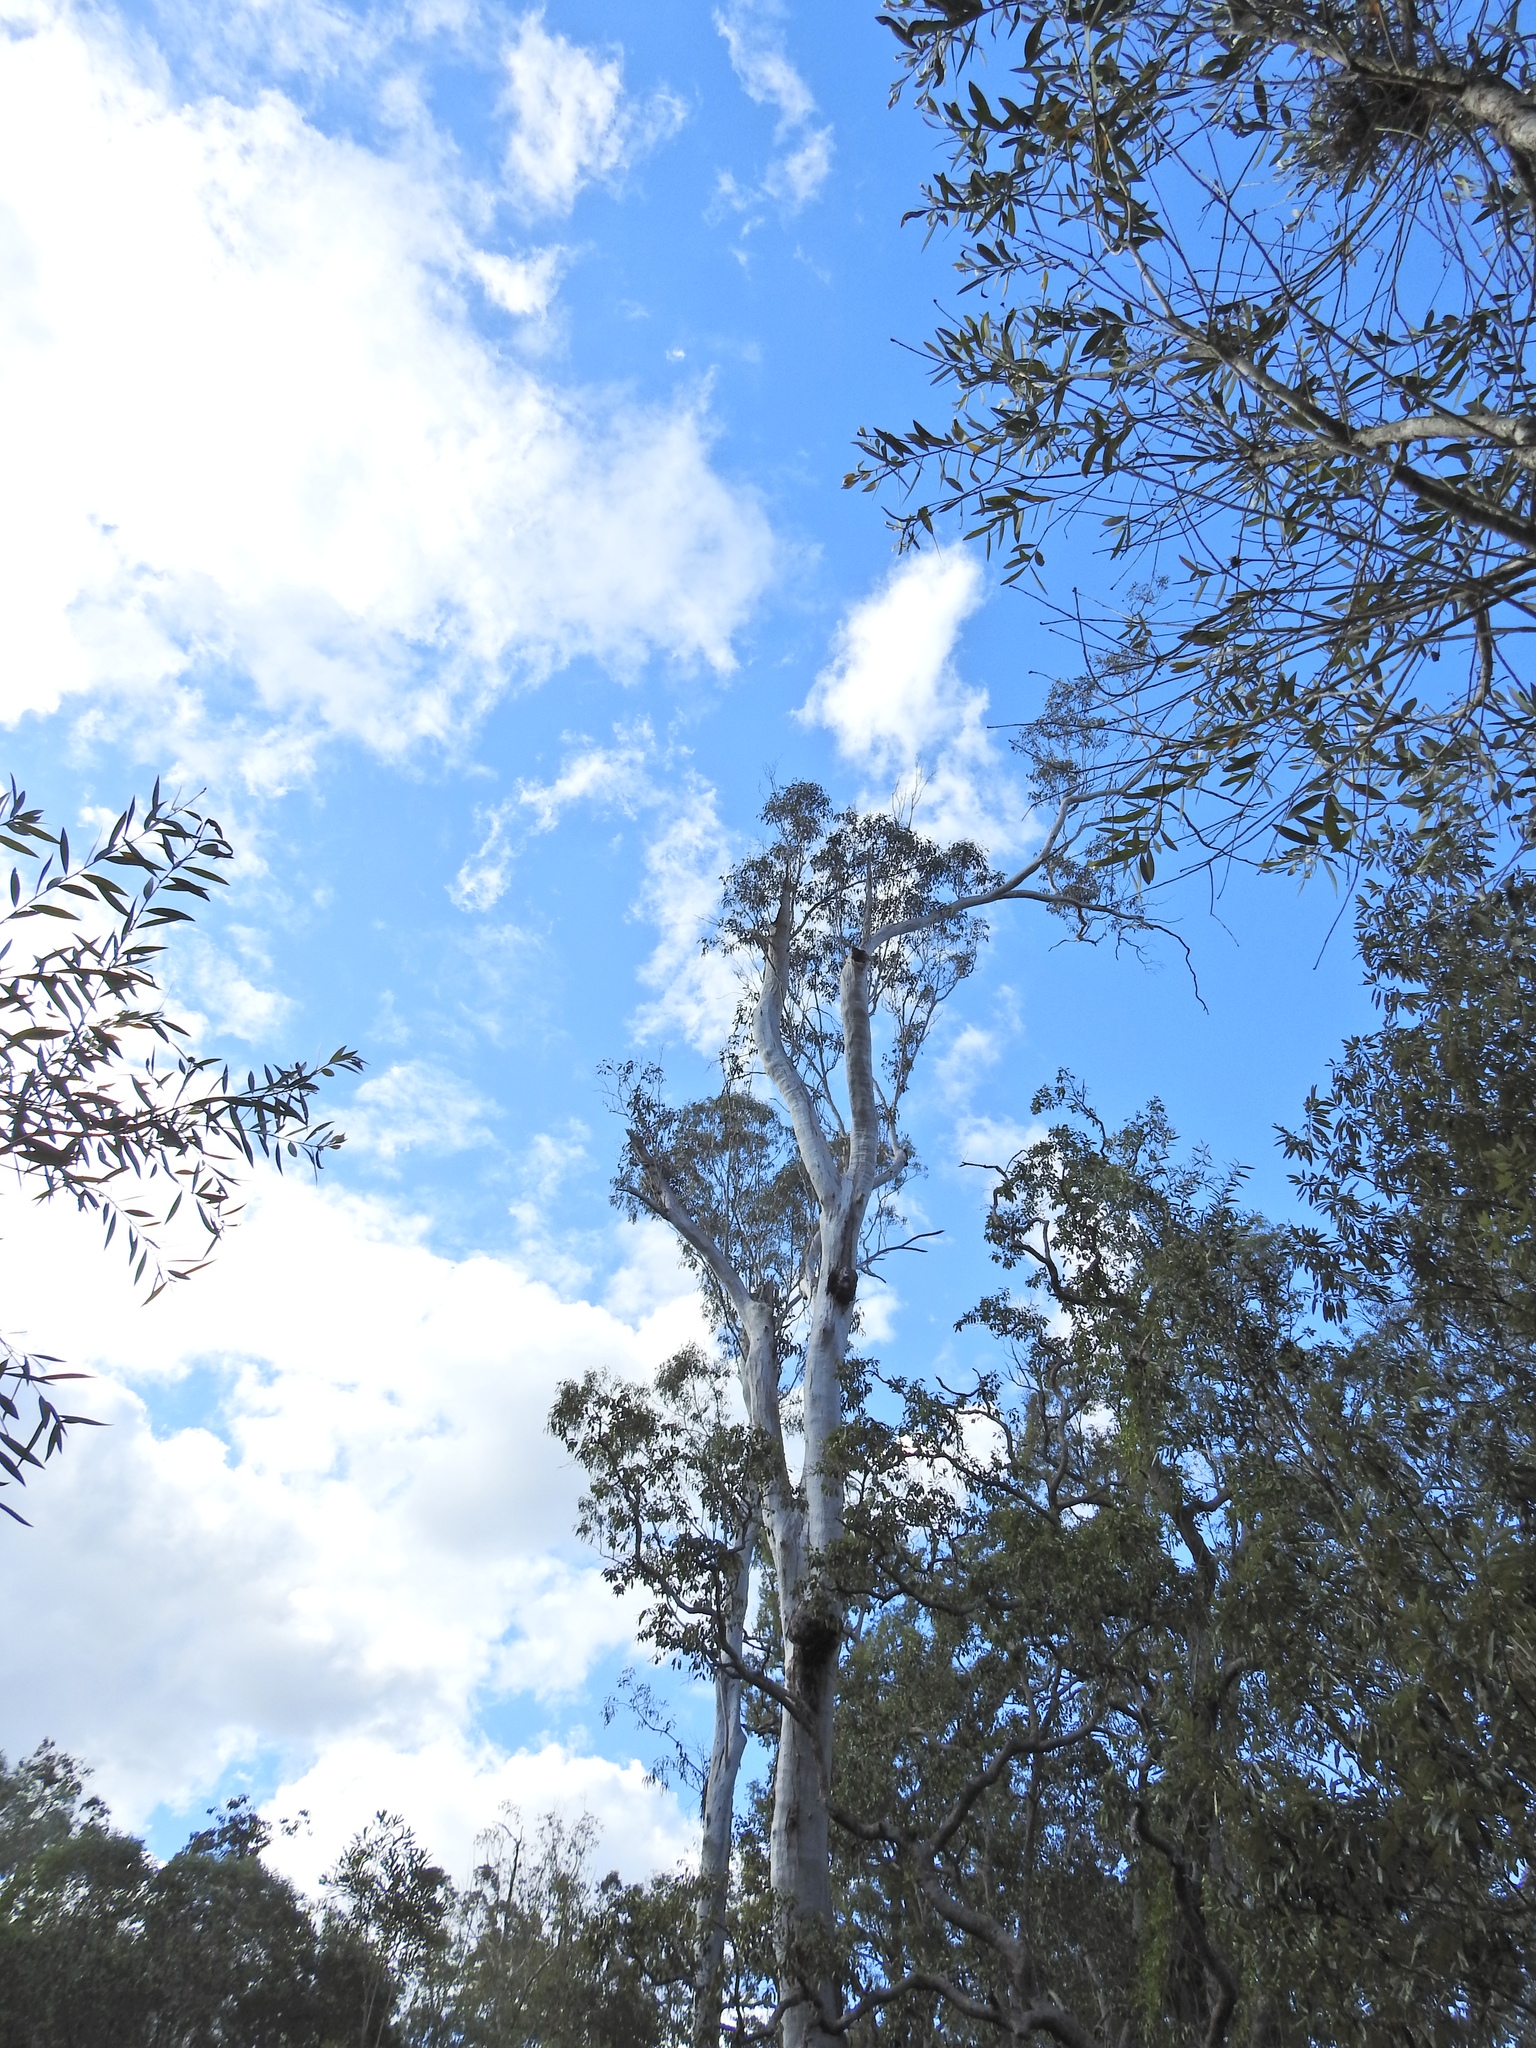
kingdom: Animalia
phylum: Chordata
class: Aves
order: Psittaciformes
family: Psittacidae
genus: Cacatua
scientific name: Cacatua galerita
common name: Sulphur-crested cockatoo
